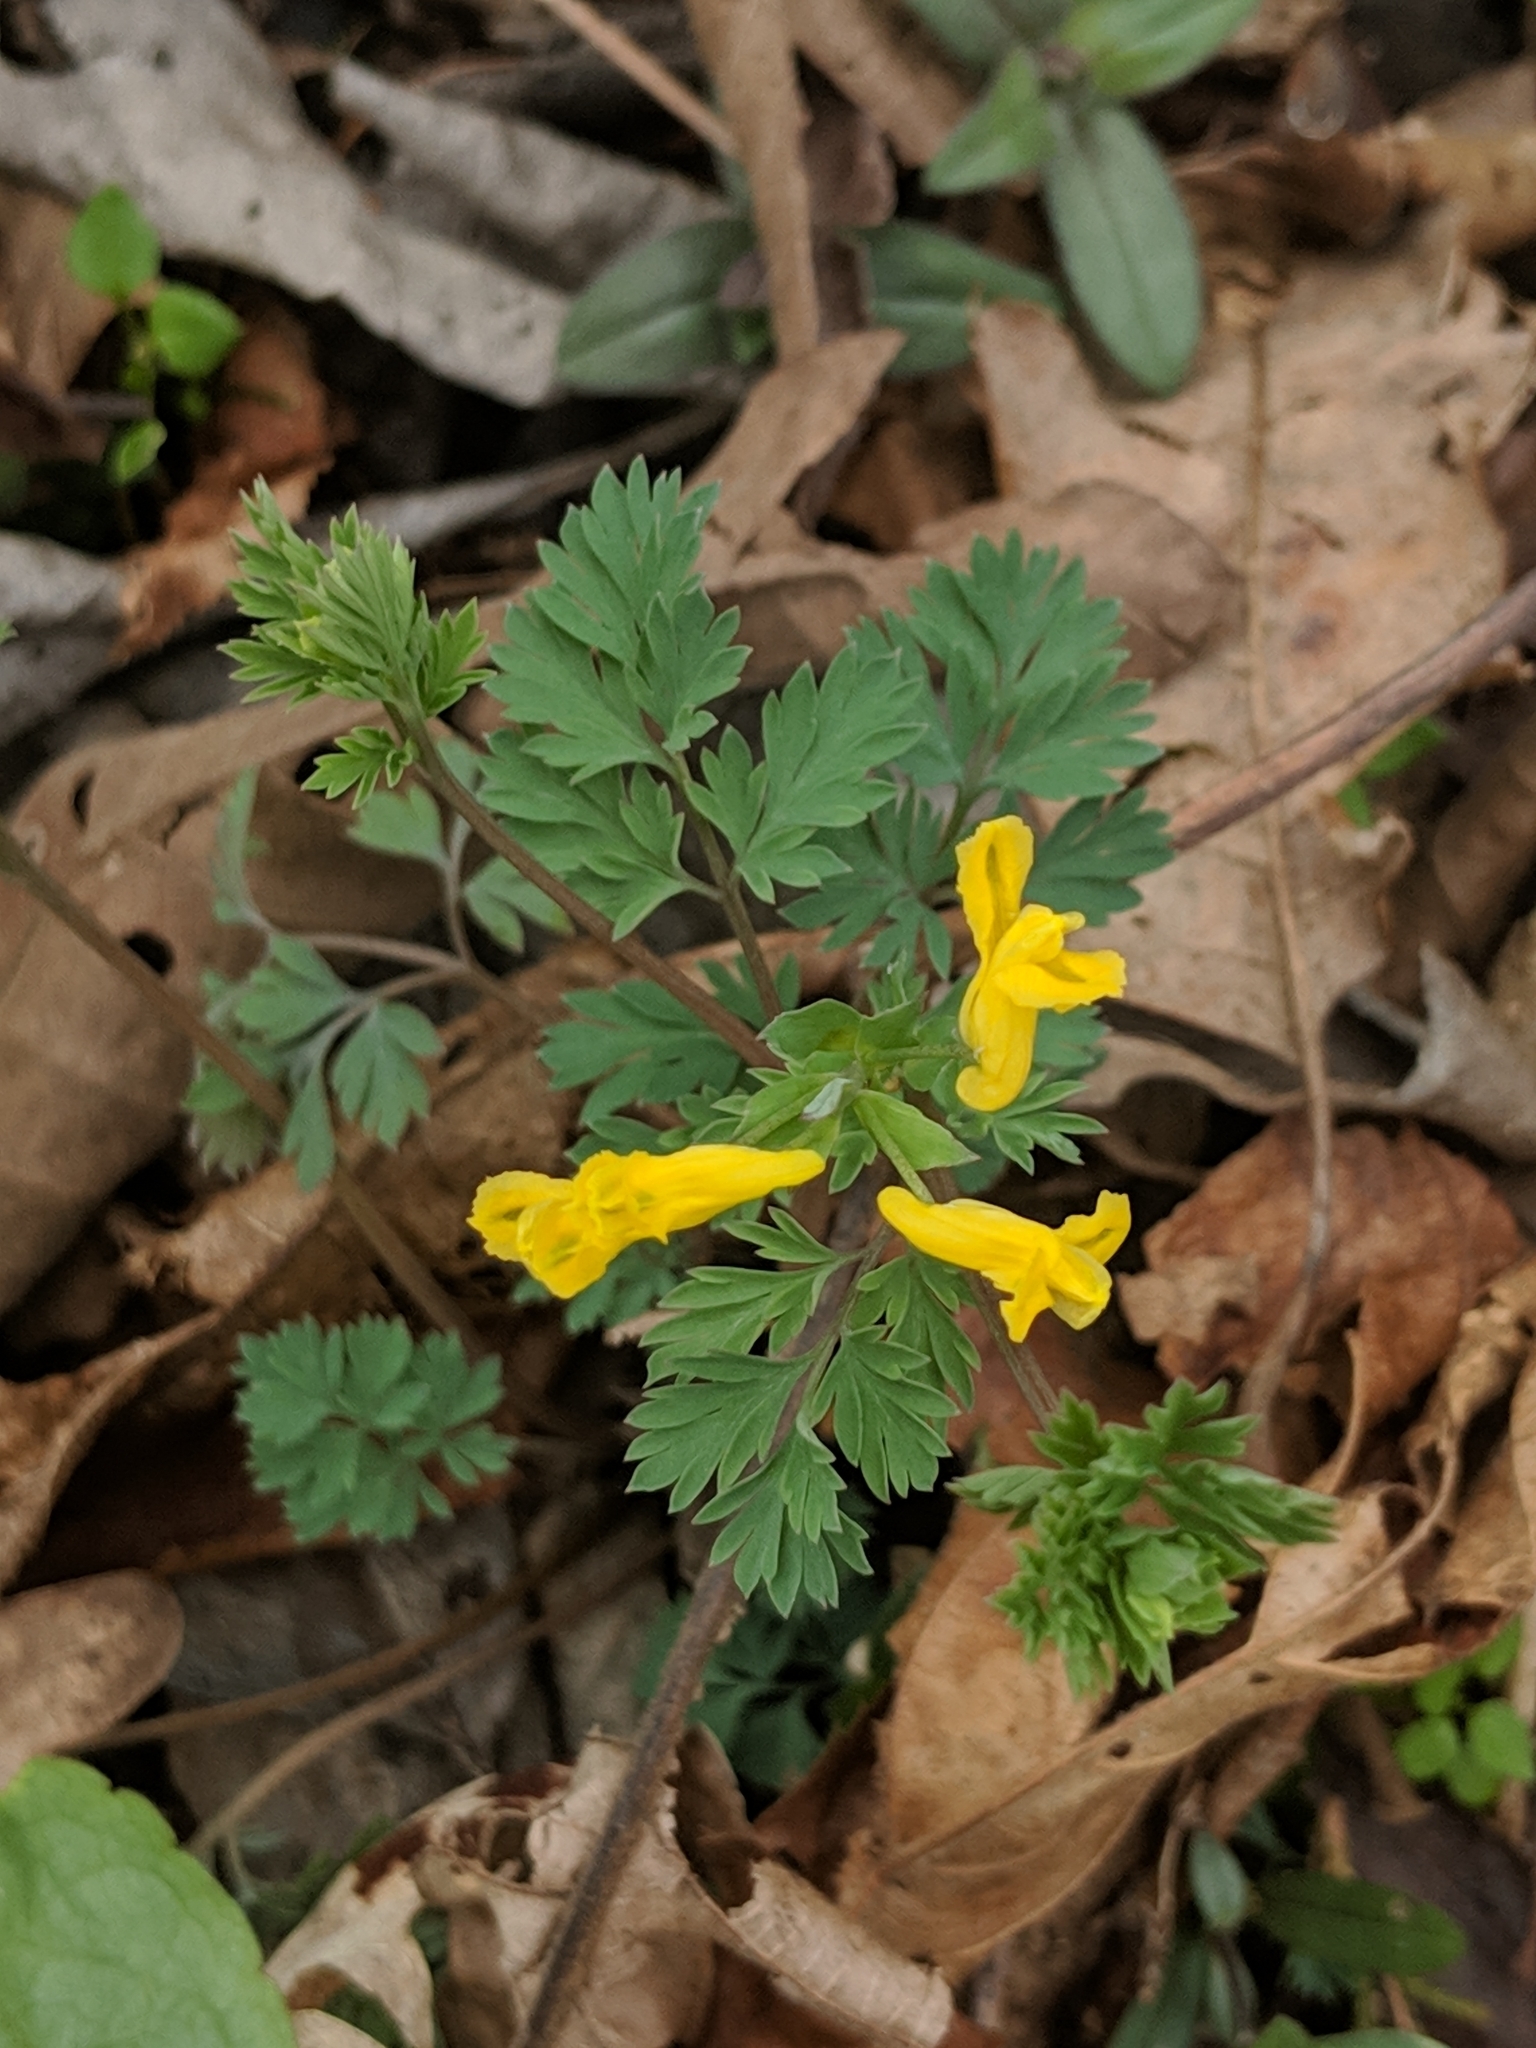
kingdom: Plantae
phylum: Tracheophyta
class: Magnoliopsida
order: Ranunculales
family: Papaveraceae
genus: Corydalis
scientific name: Corydalis flavula
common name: Yellow corydalis
